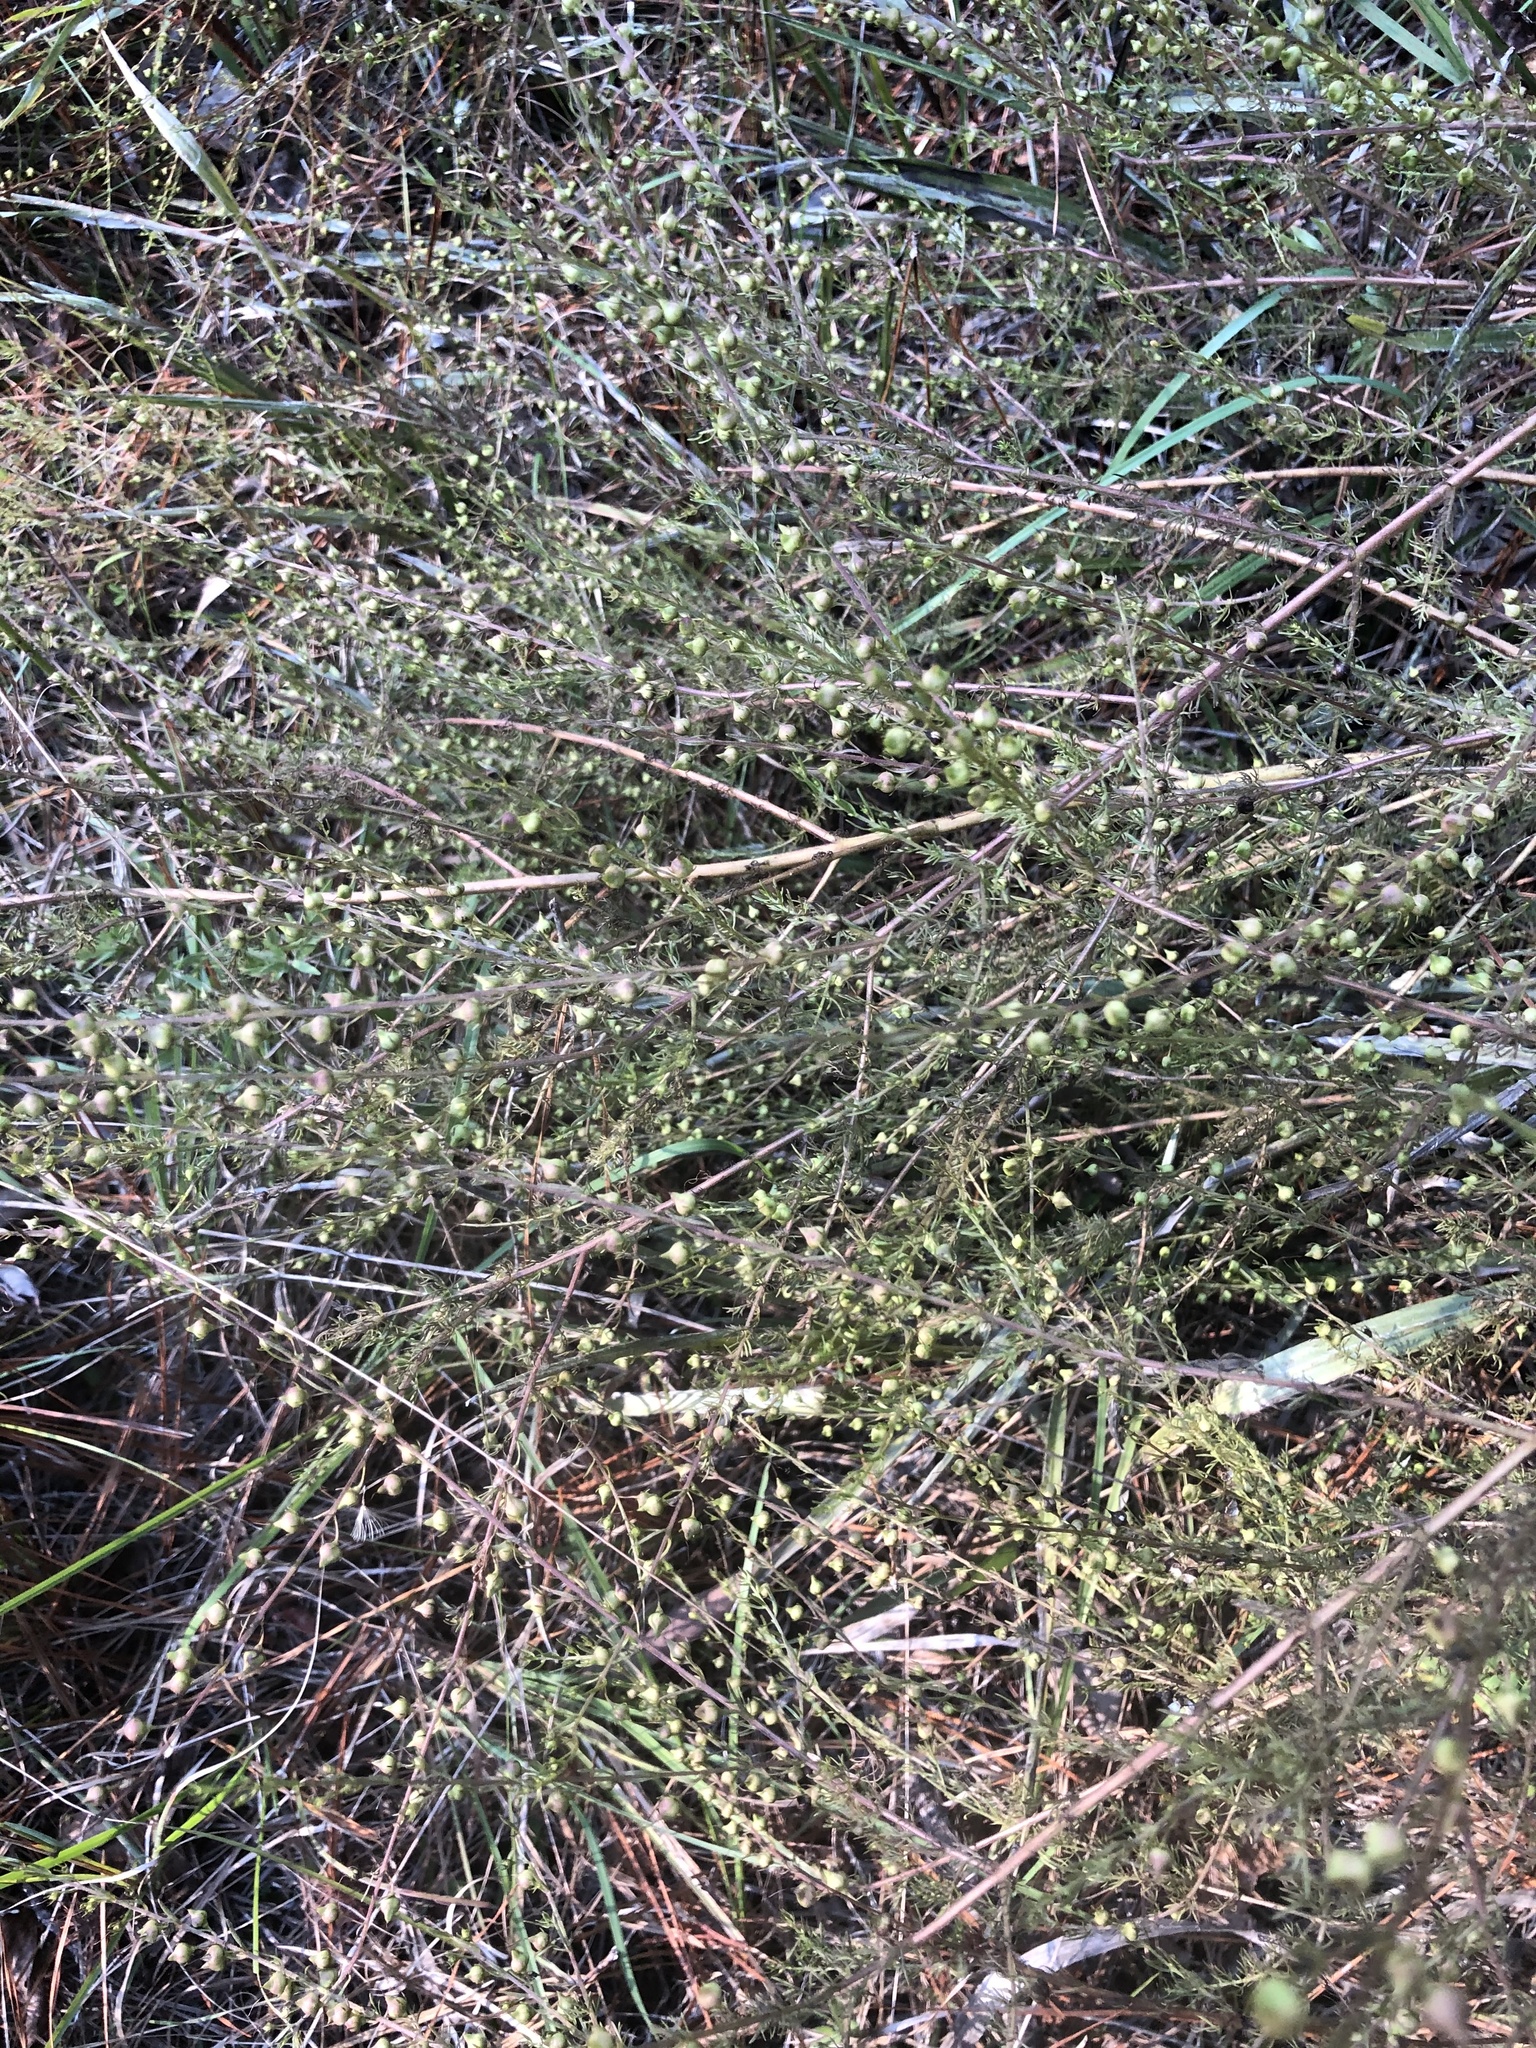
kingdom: Plantae
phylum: Tracheophyta
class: Magnoliopsida
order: Lamiales
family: Orobanchaceae
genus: Seymeria
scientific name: Seymeria cassioides
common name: Yaupon black-senna
